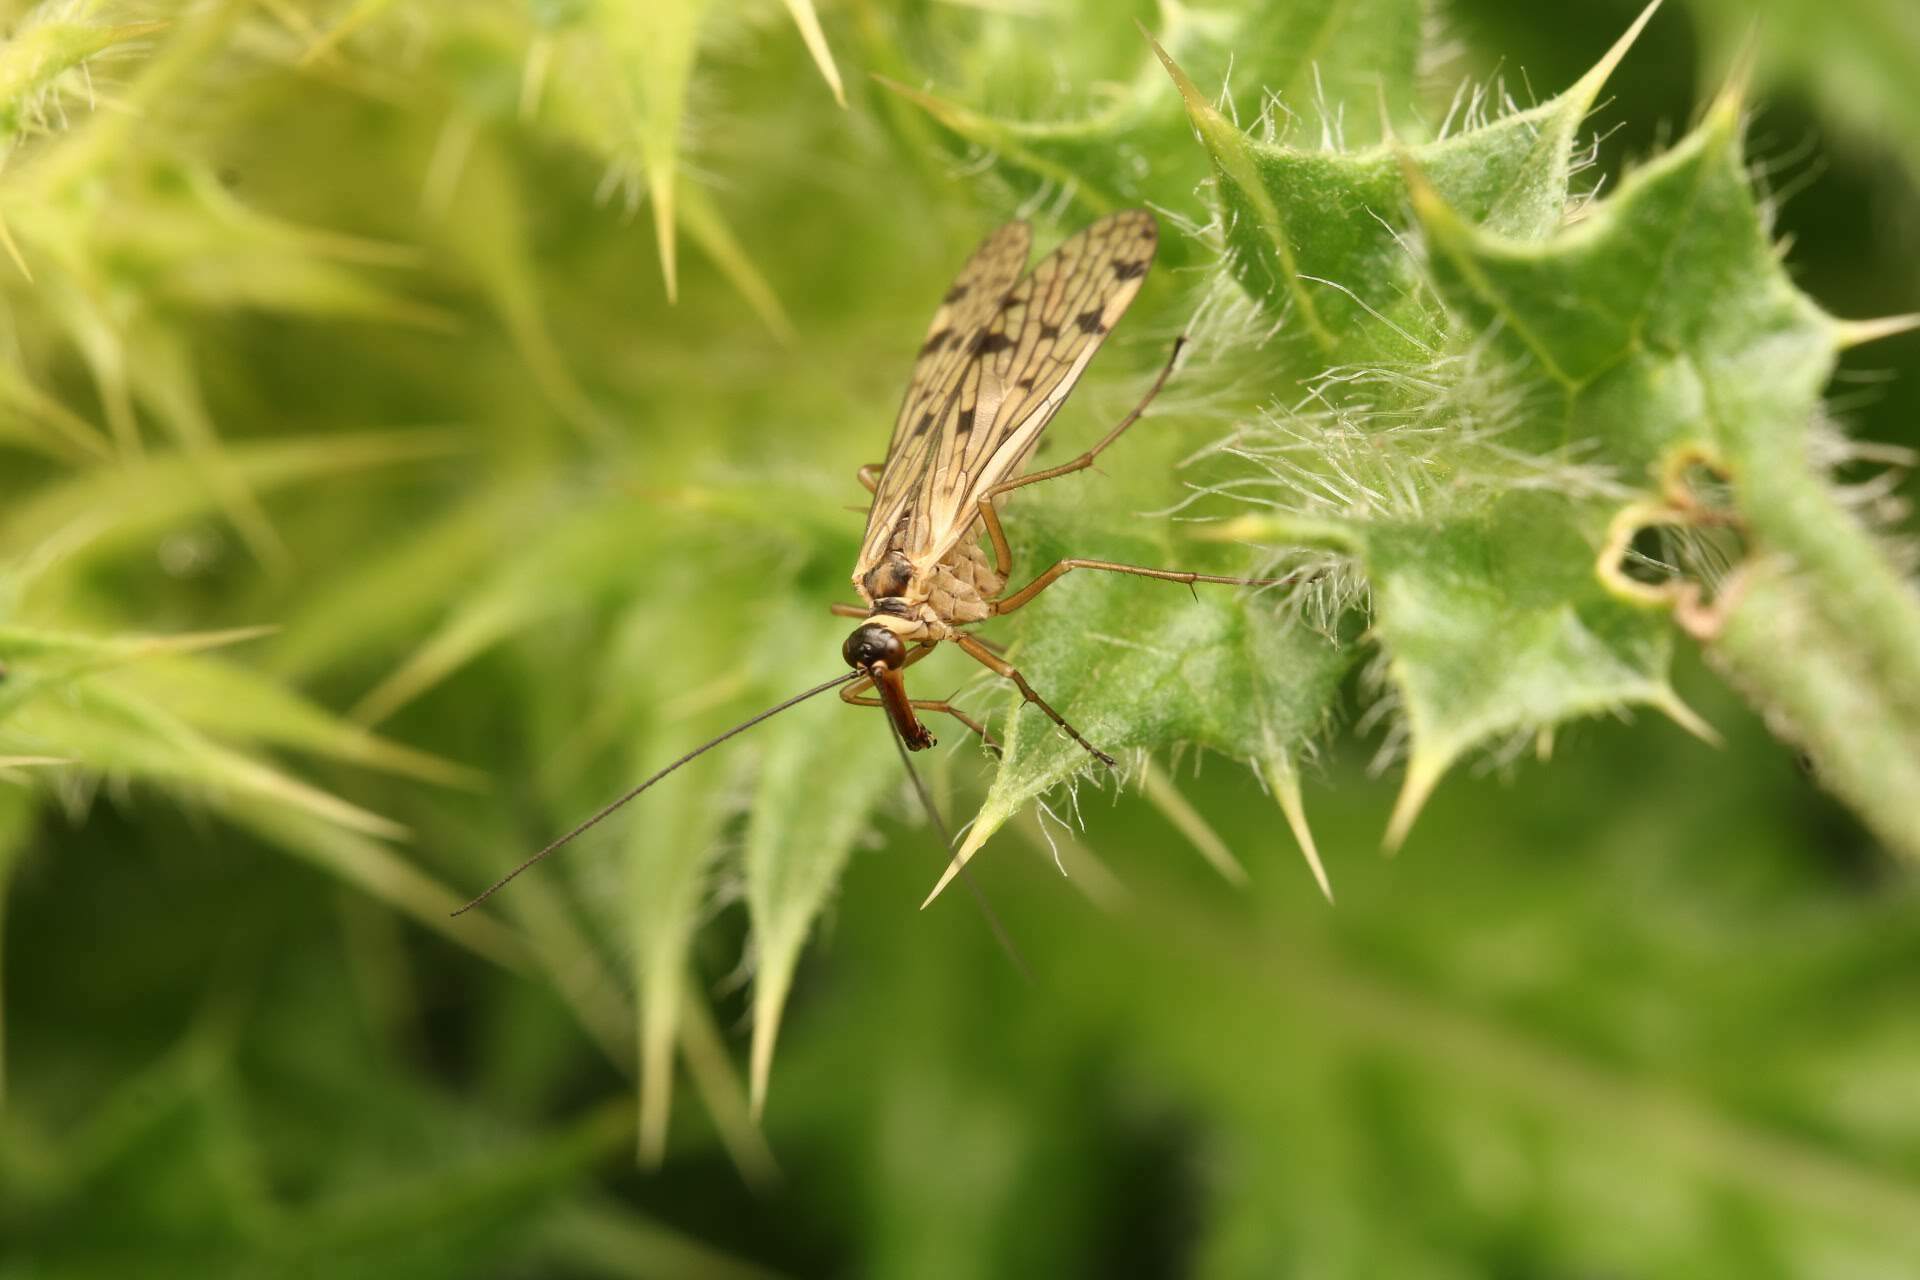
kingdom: Animalia
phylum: Arthropoda
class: Insecta
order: Mecoptera
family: Panorpidae
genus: Panorpa
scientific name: Panorpa alpina
